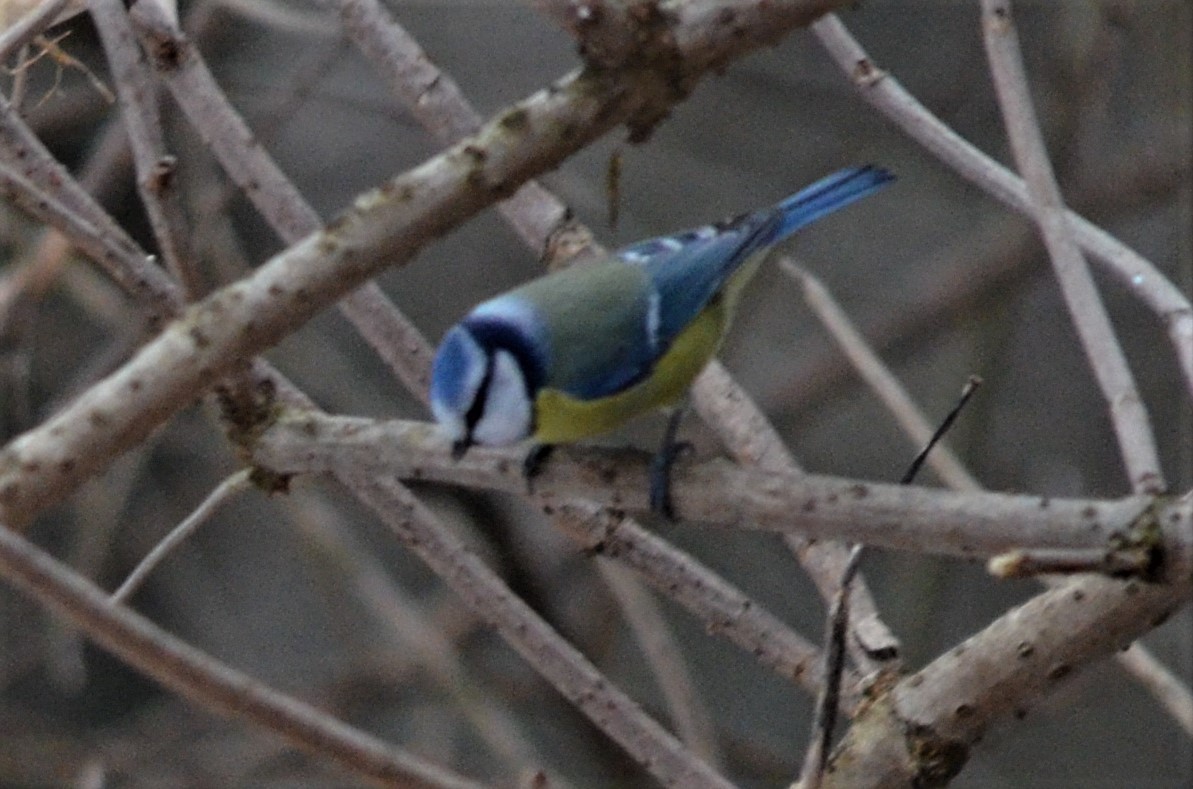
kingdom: Animalia
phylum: Chordata
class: Aves
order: Passeriformes
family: Paridae
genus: Cyanistes
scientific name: Cyanistes caeruleus
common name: Eurasian blue tit
